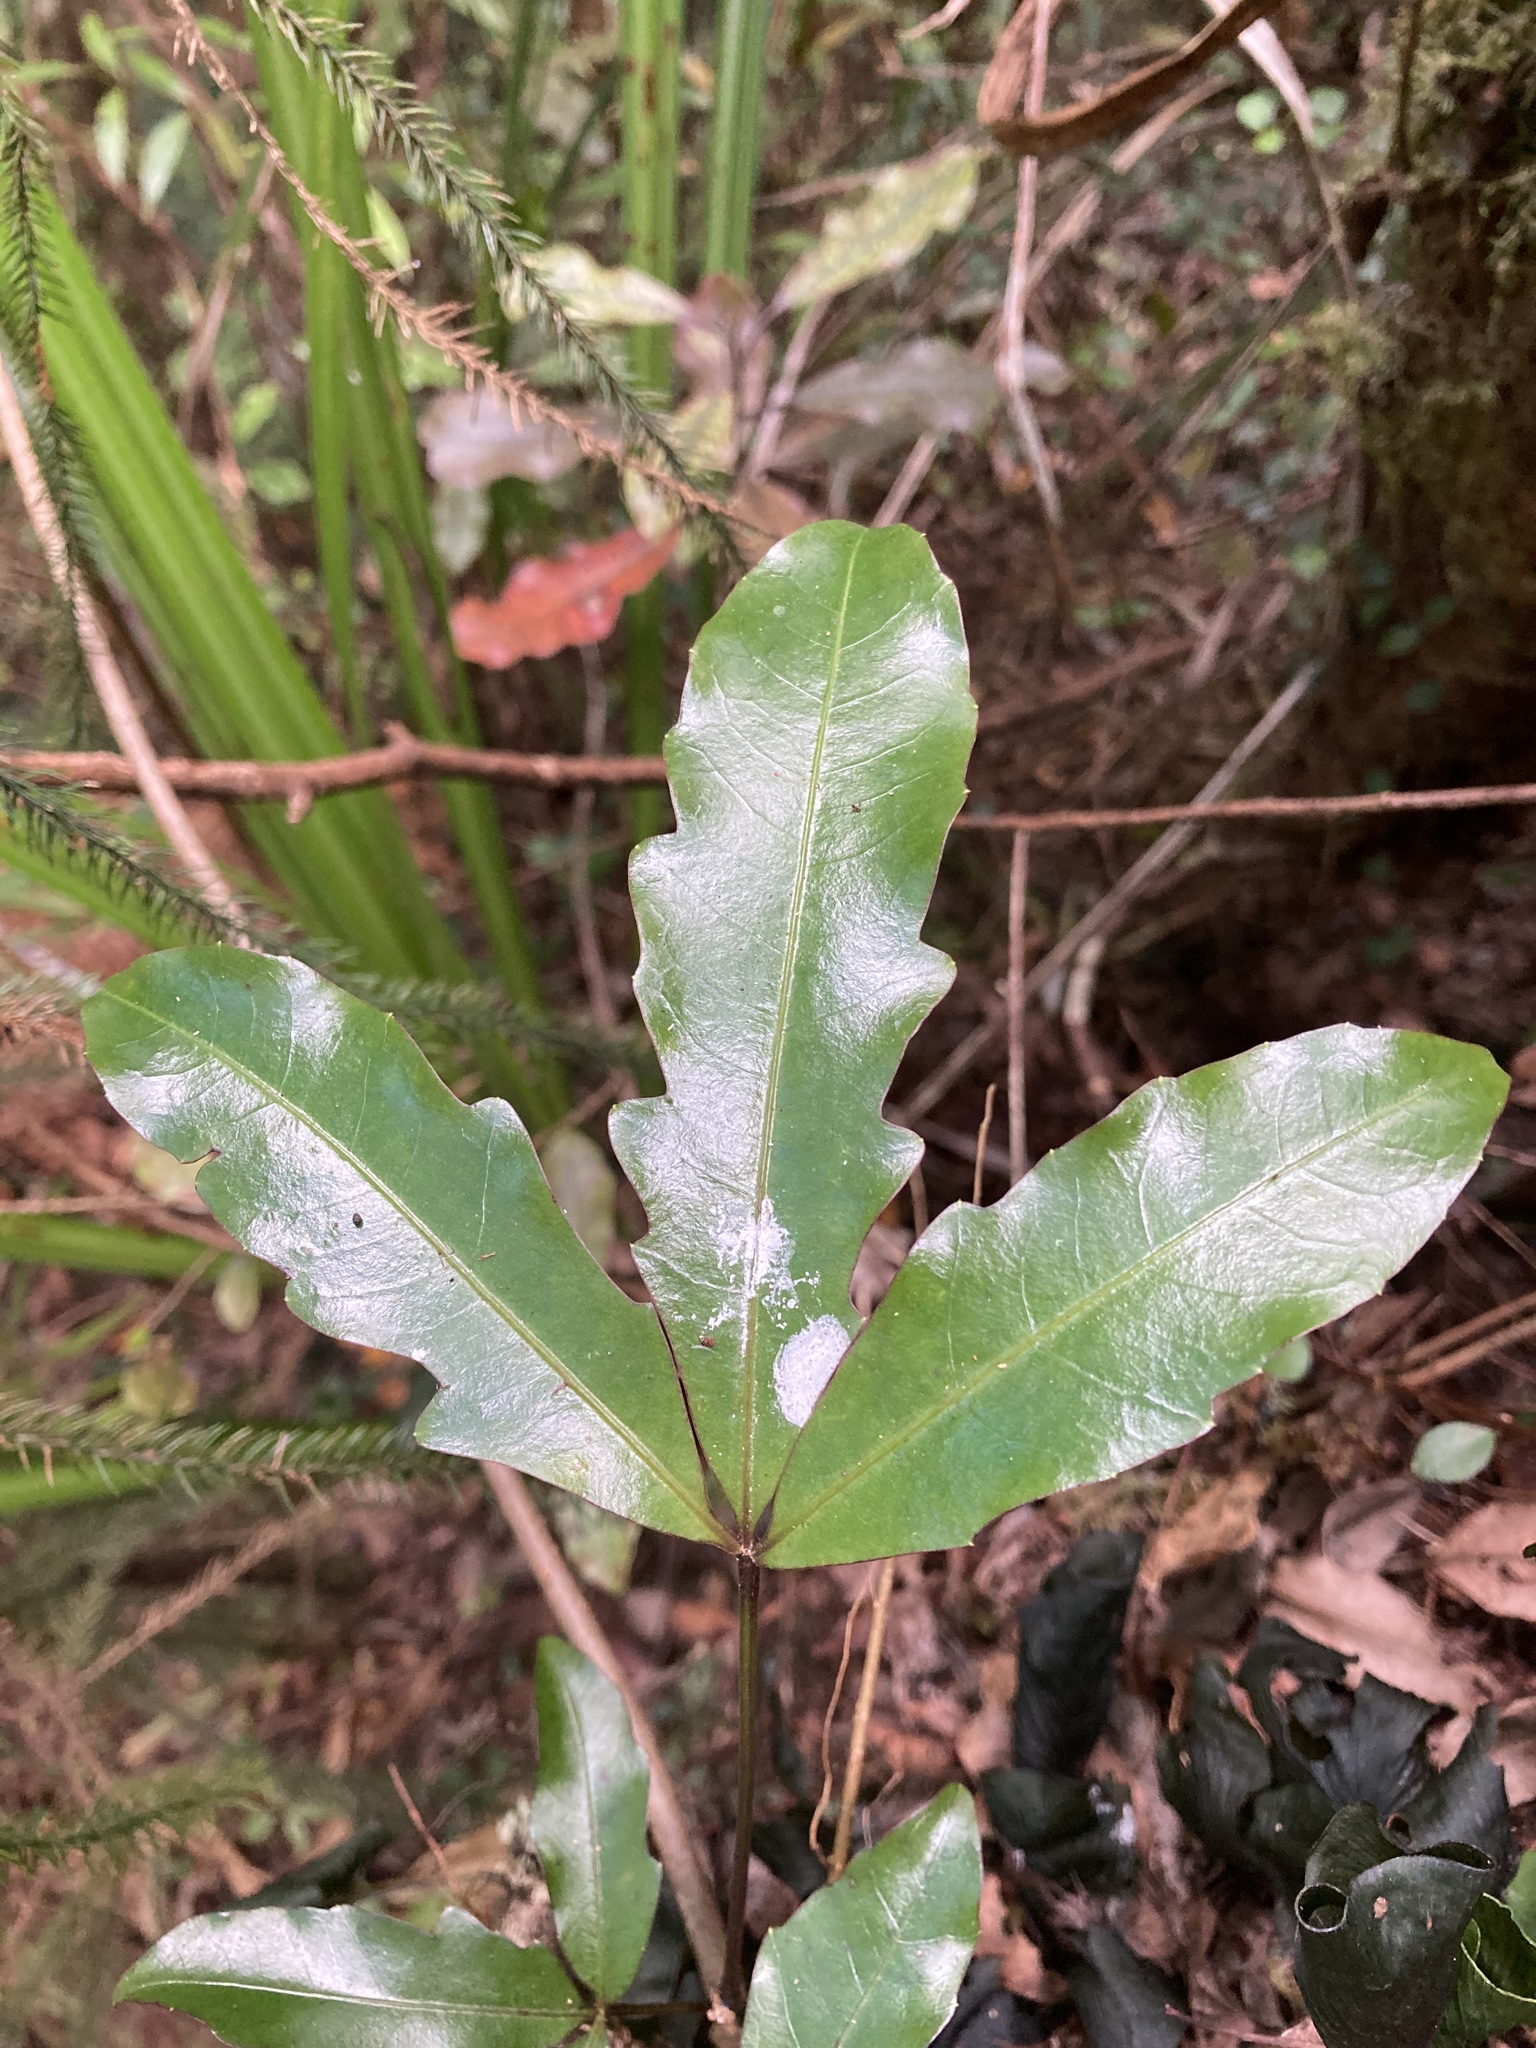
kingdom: Plantae
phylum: Tracheophyta
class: Magnoliopsida
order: Apiales
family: Araliaceae
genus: Raukaua
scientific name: Raukaua edgerleyi
